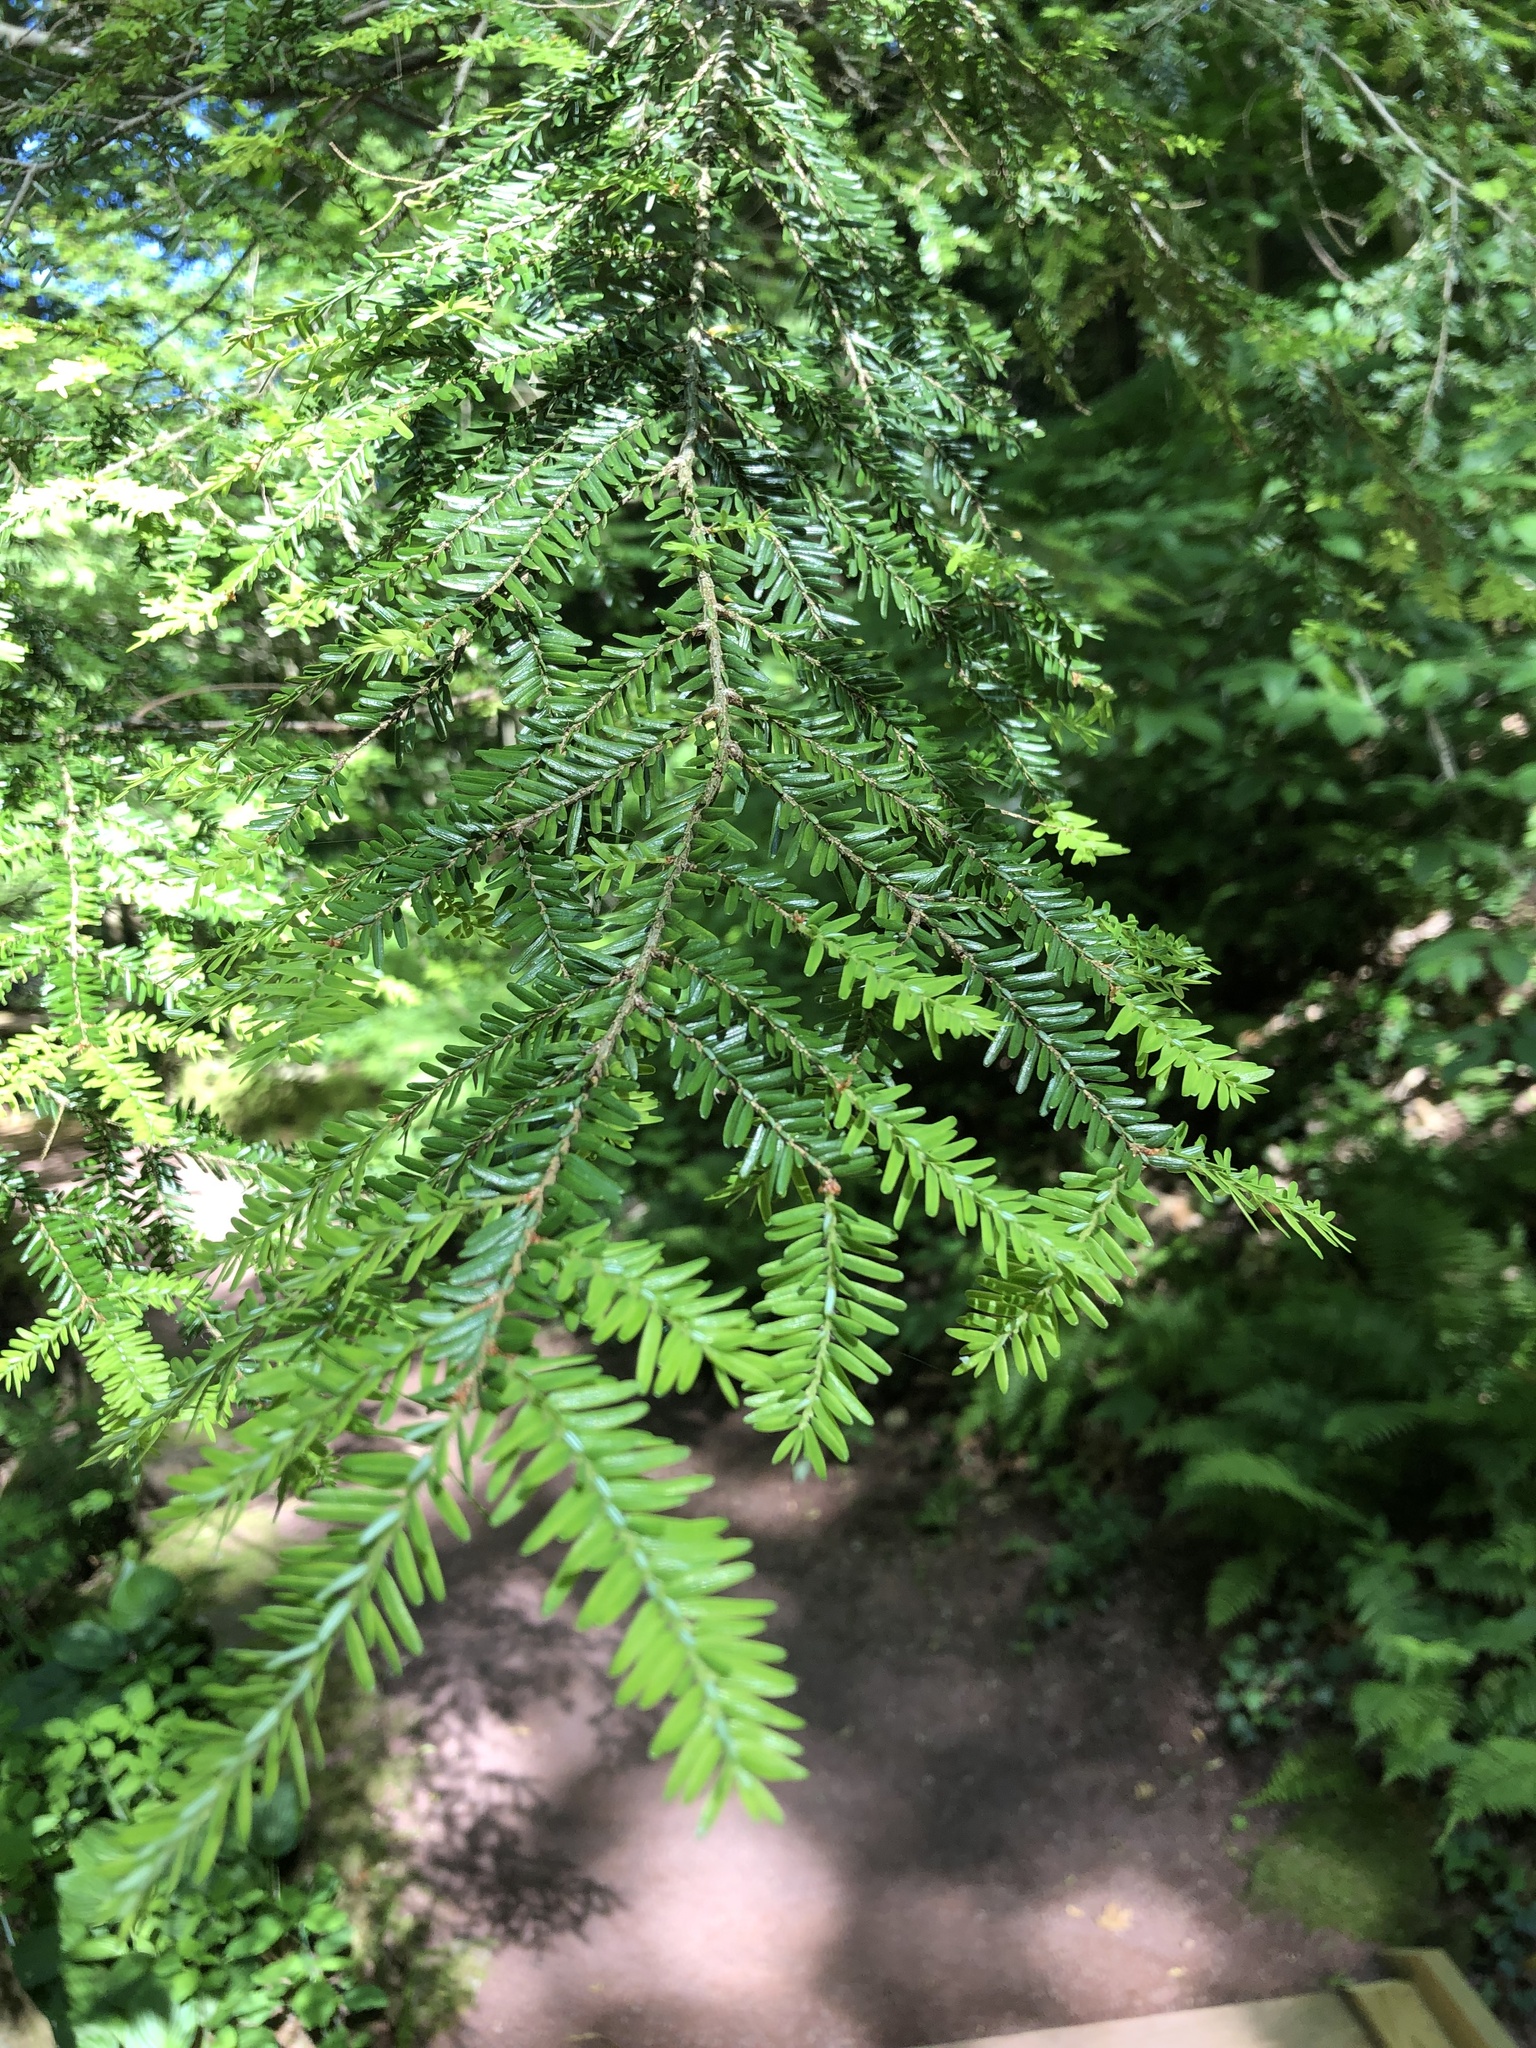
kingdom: Plantae
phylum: Tracheophyta
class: Pinopsida
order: Pinales
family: Pinaceae
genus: Tsuga
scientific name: Tsuga canadensis
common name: Eastern hemlock
